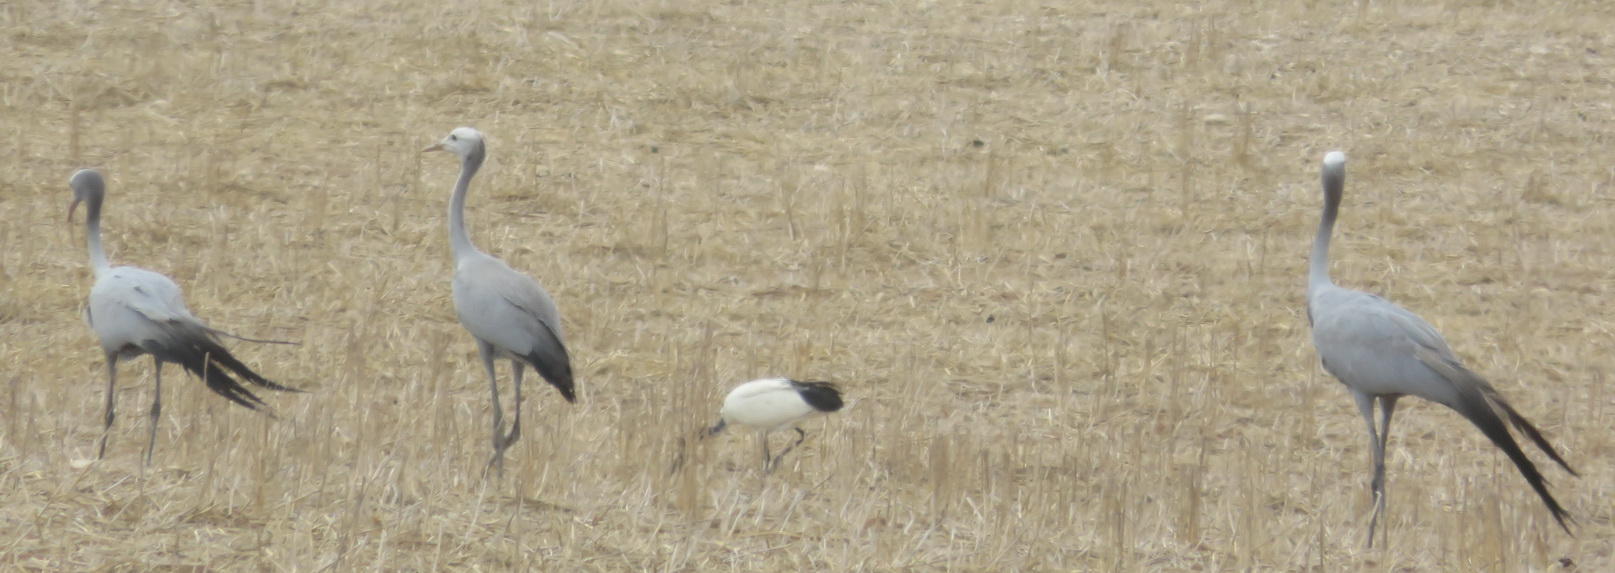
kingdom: Animalia
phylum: Chordata
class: Aves
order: Gruiformes
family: Gruidae
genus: Anthropoides
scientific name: Anthropoides paradiseus
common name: Blue crane
